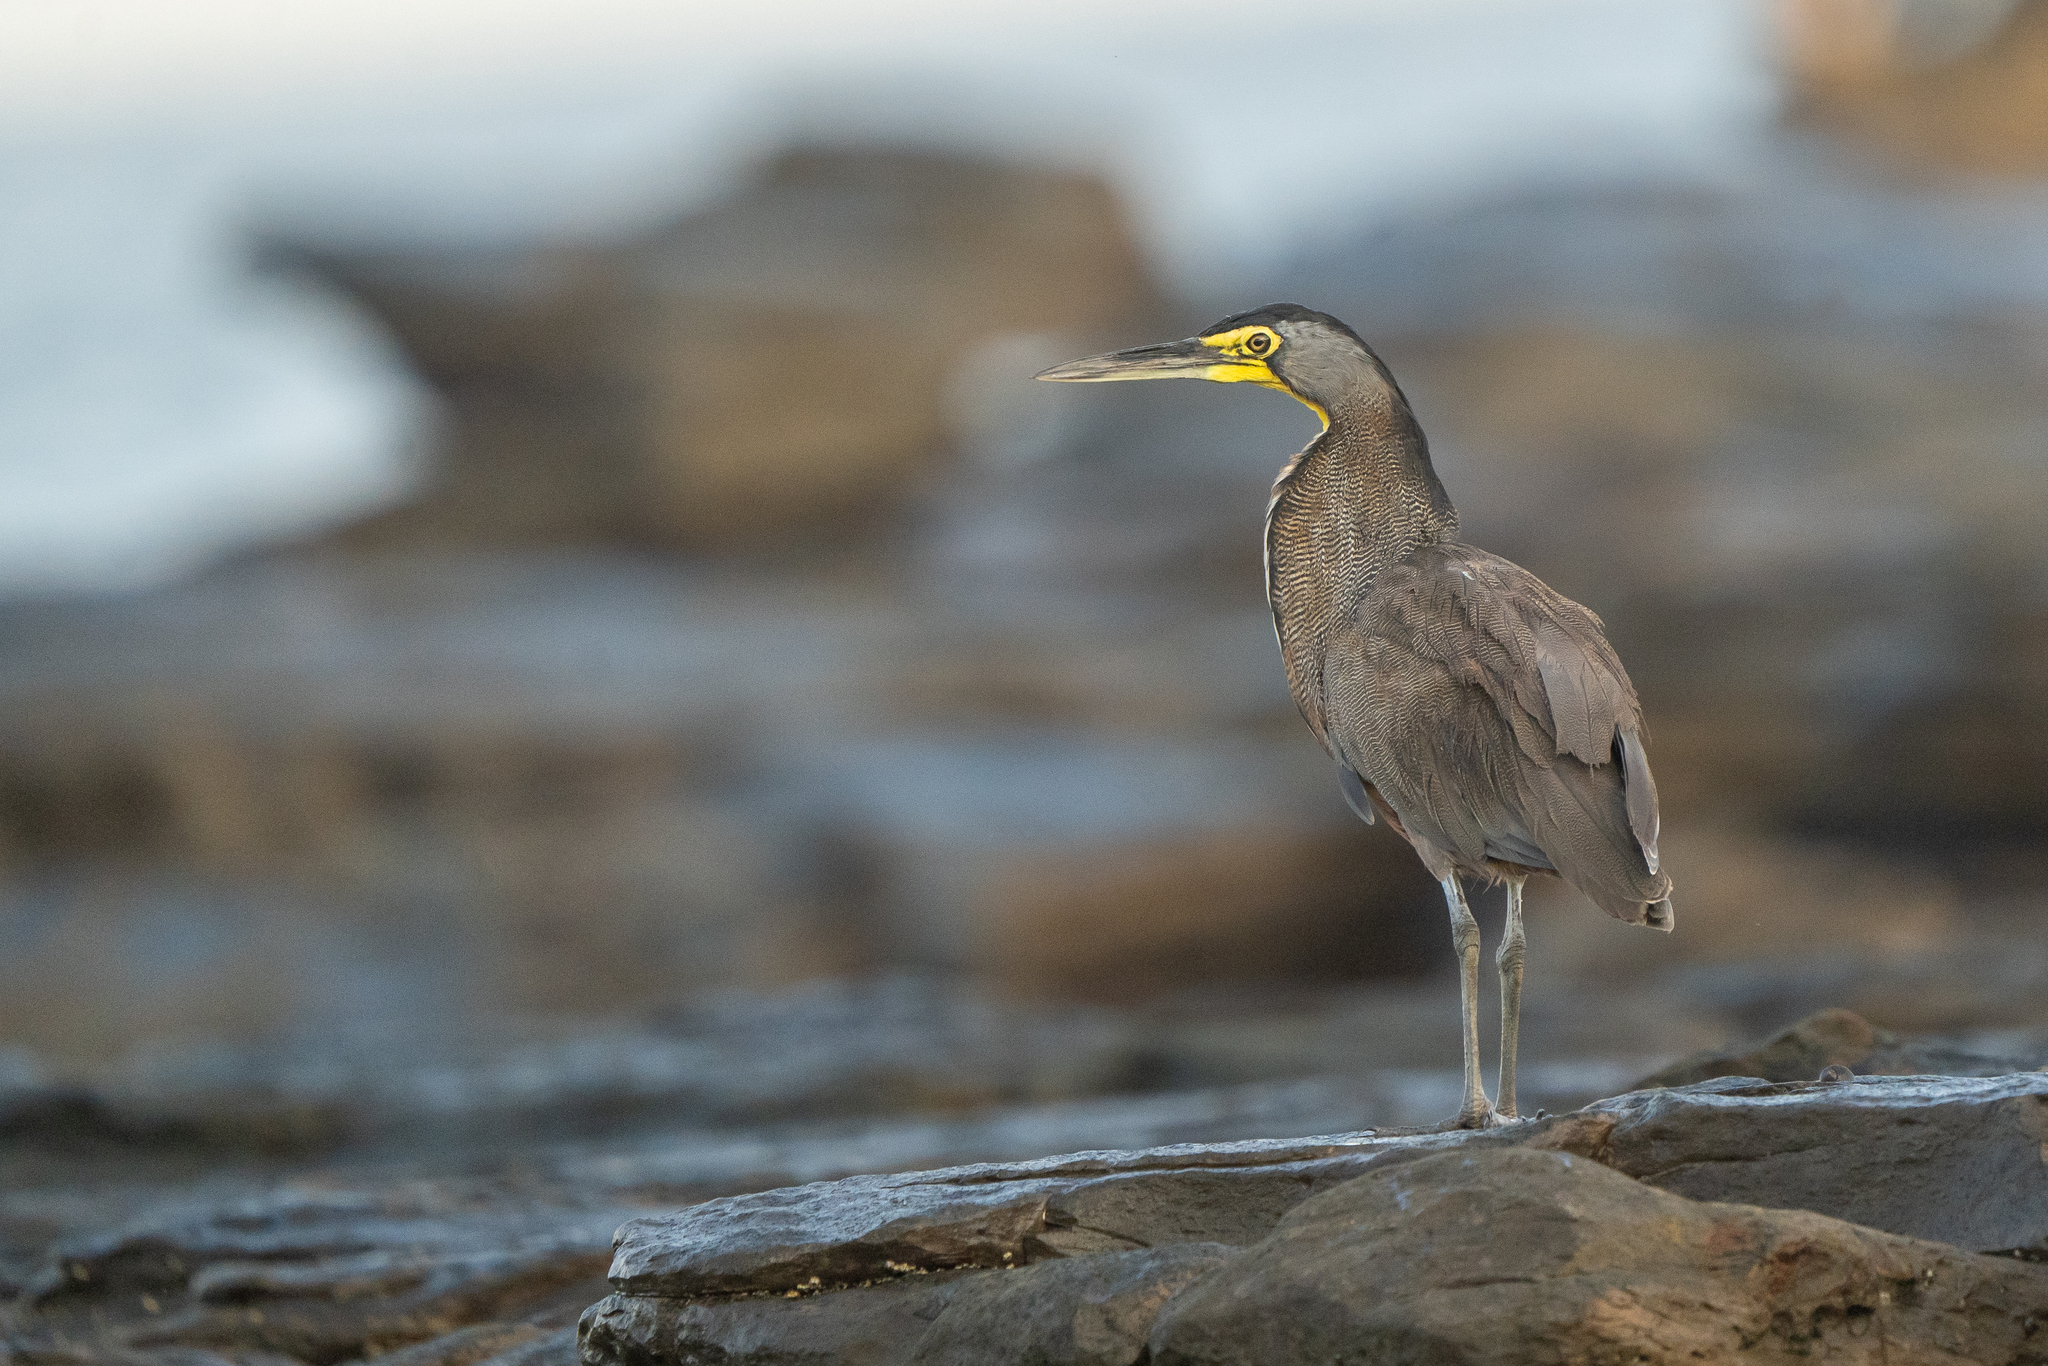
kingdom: Animalia
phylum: Chordata
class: Aves
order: Pelecaniformes
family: Ardeidae
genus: Tigrisoma
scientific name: Tigrisoma mexicanum
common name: Bare-throated tiger-heron
